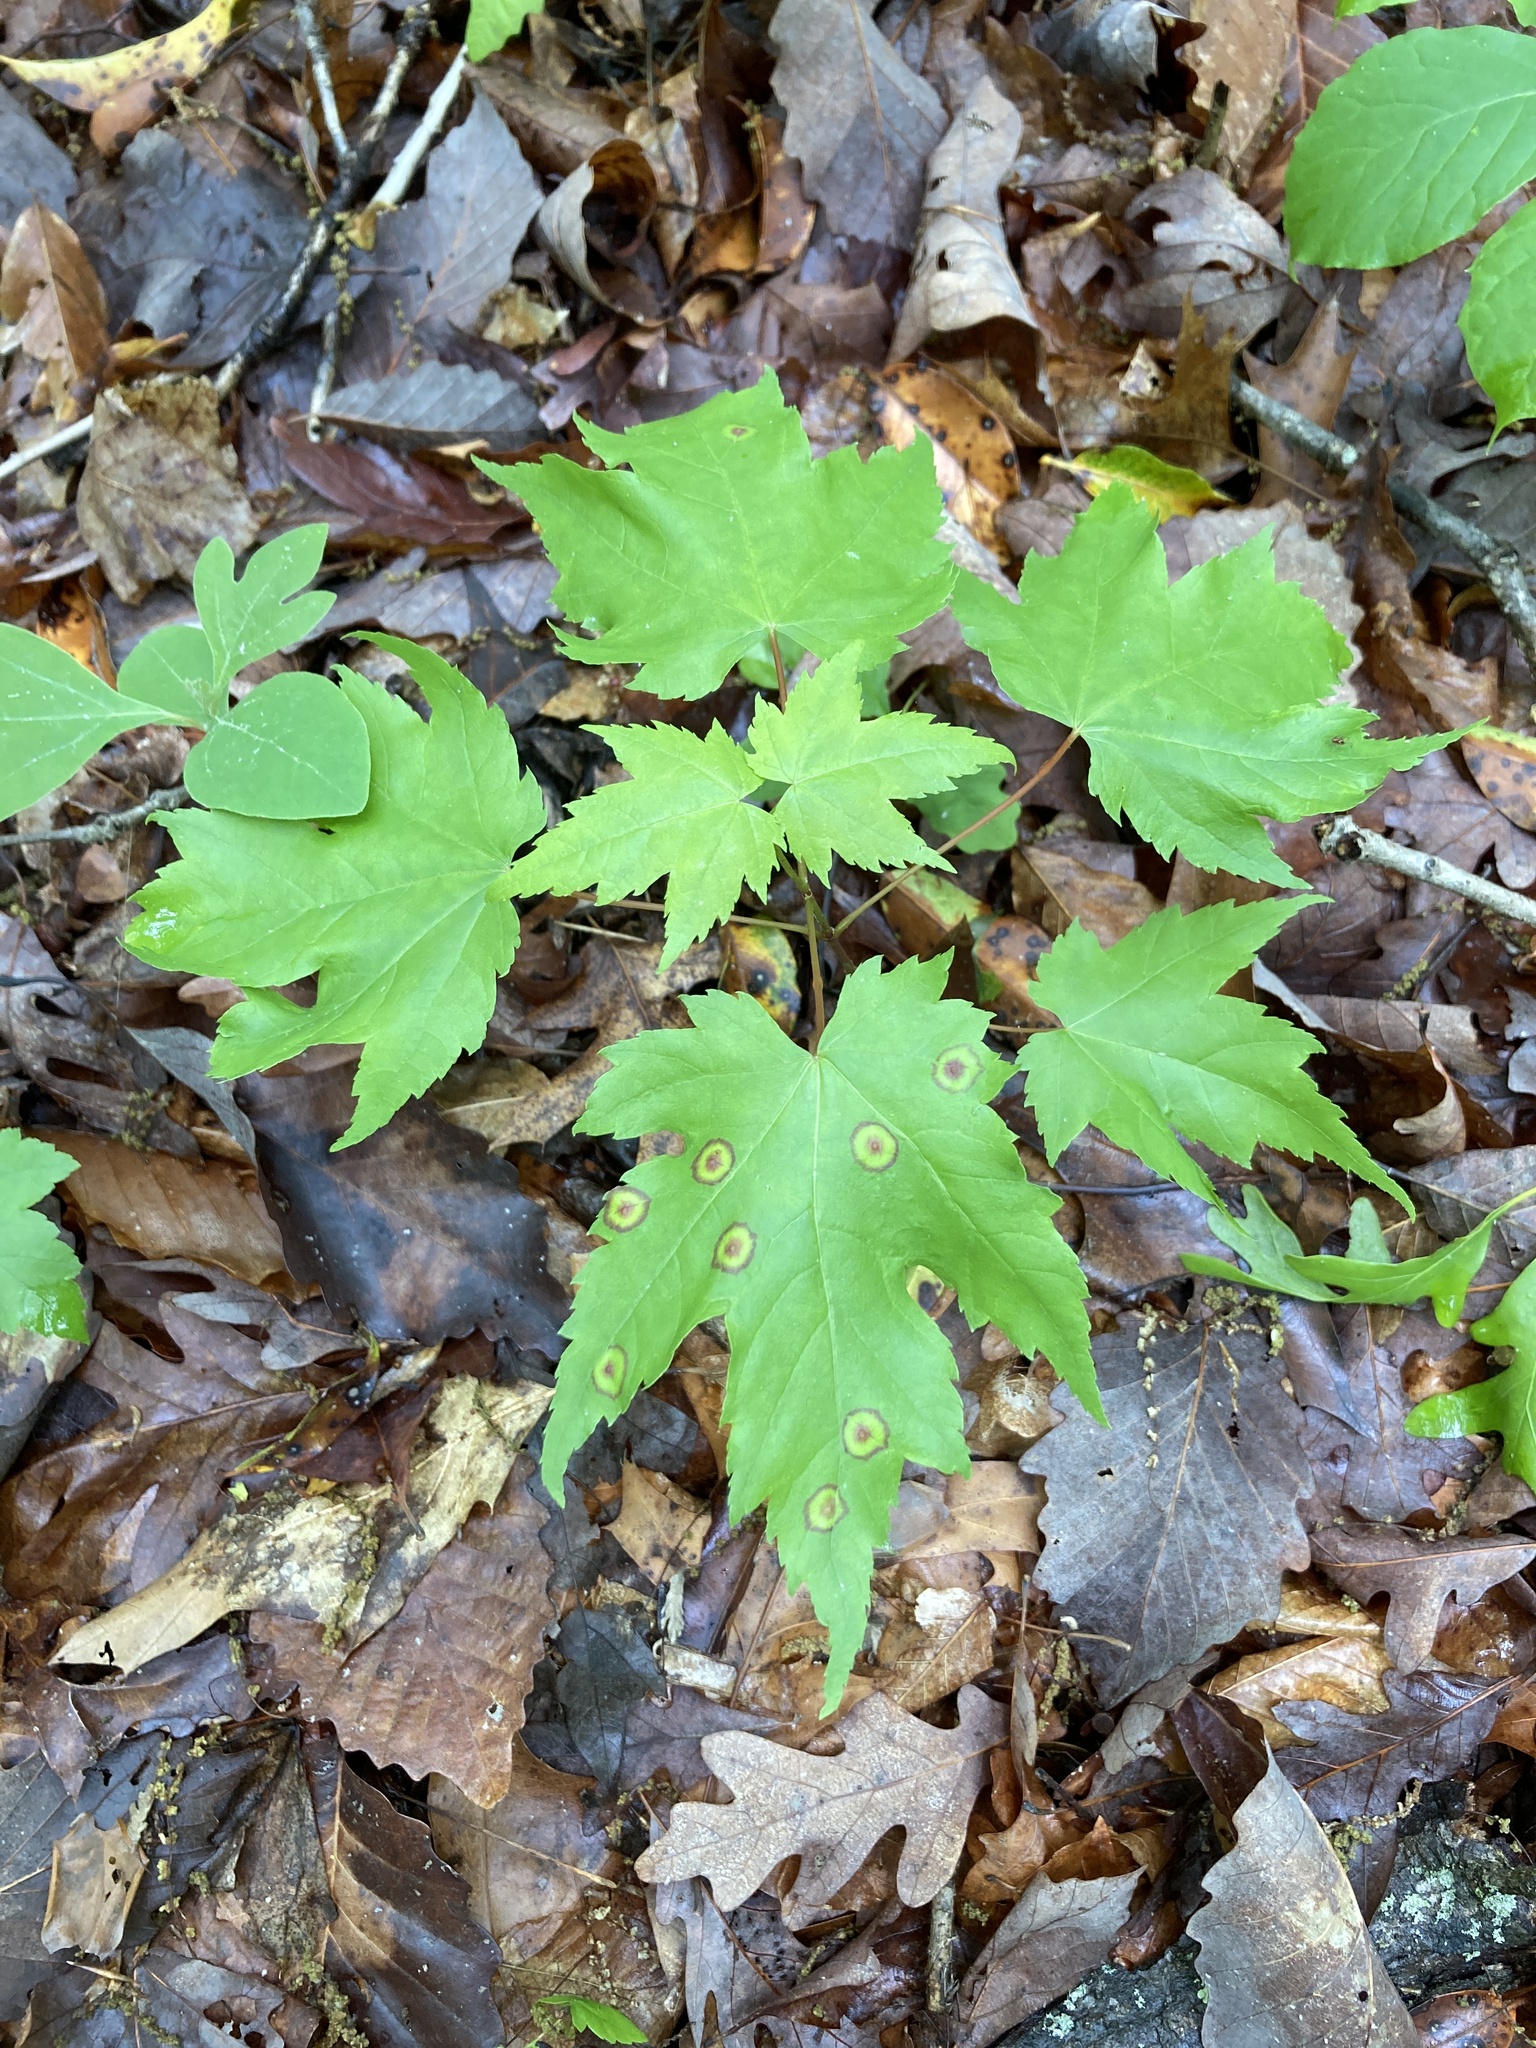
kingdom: Animalia
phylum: Arthropoda
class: Insecta
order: Diptera
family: Cecidomyiidae
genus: Acericecis
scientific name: Acericecis ocellaris
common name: Ocellate gall midge
